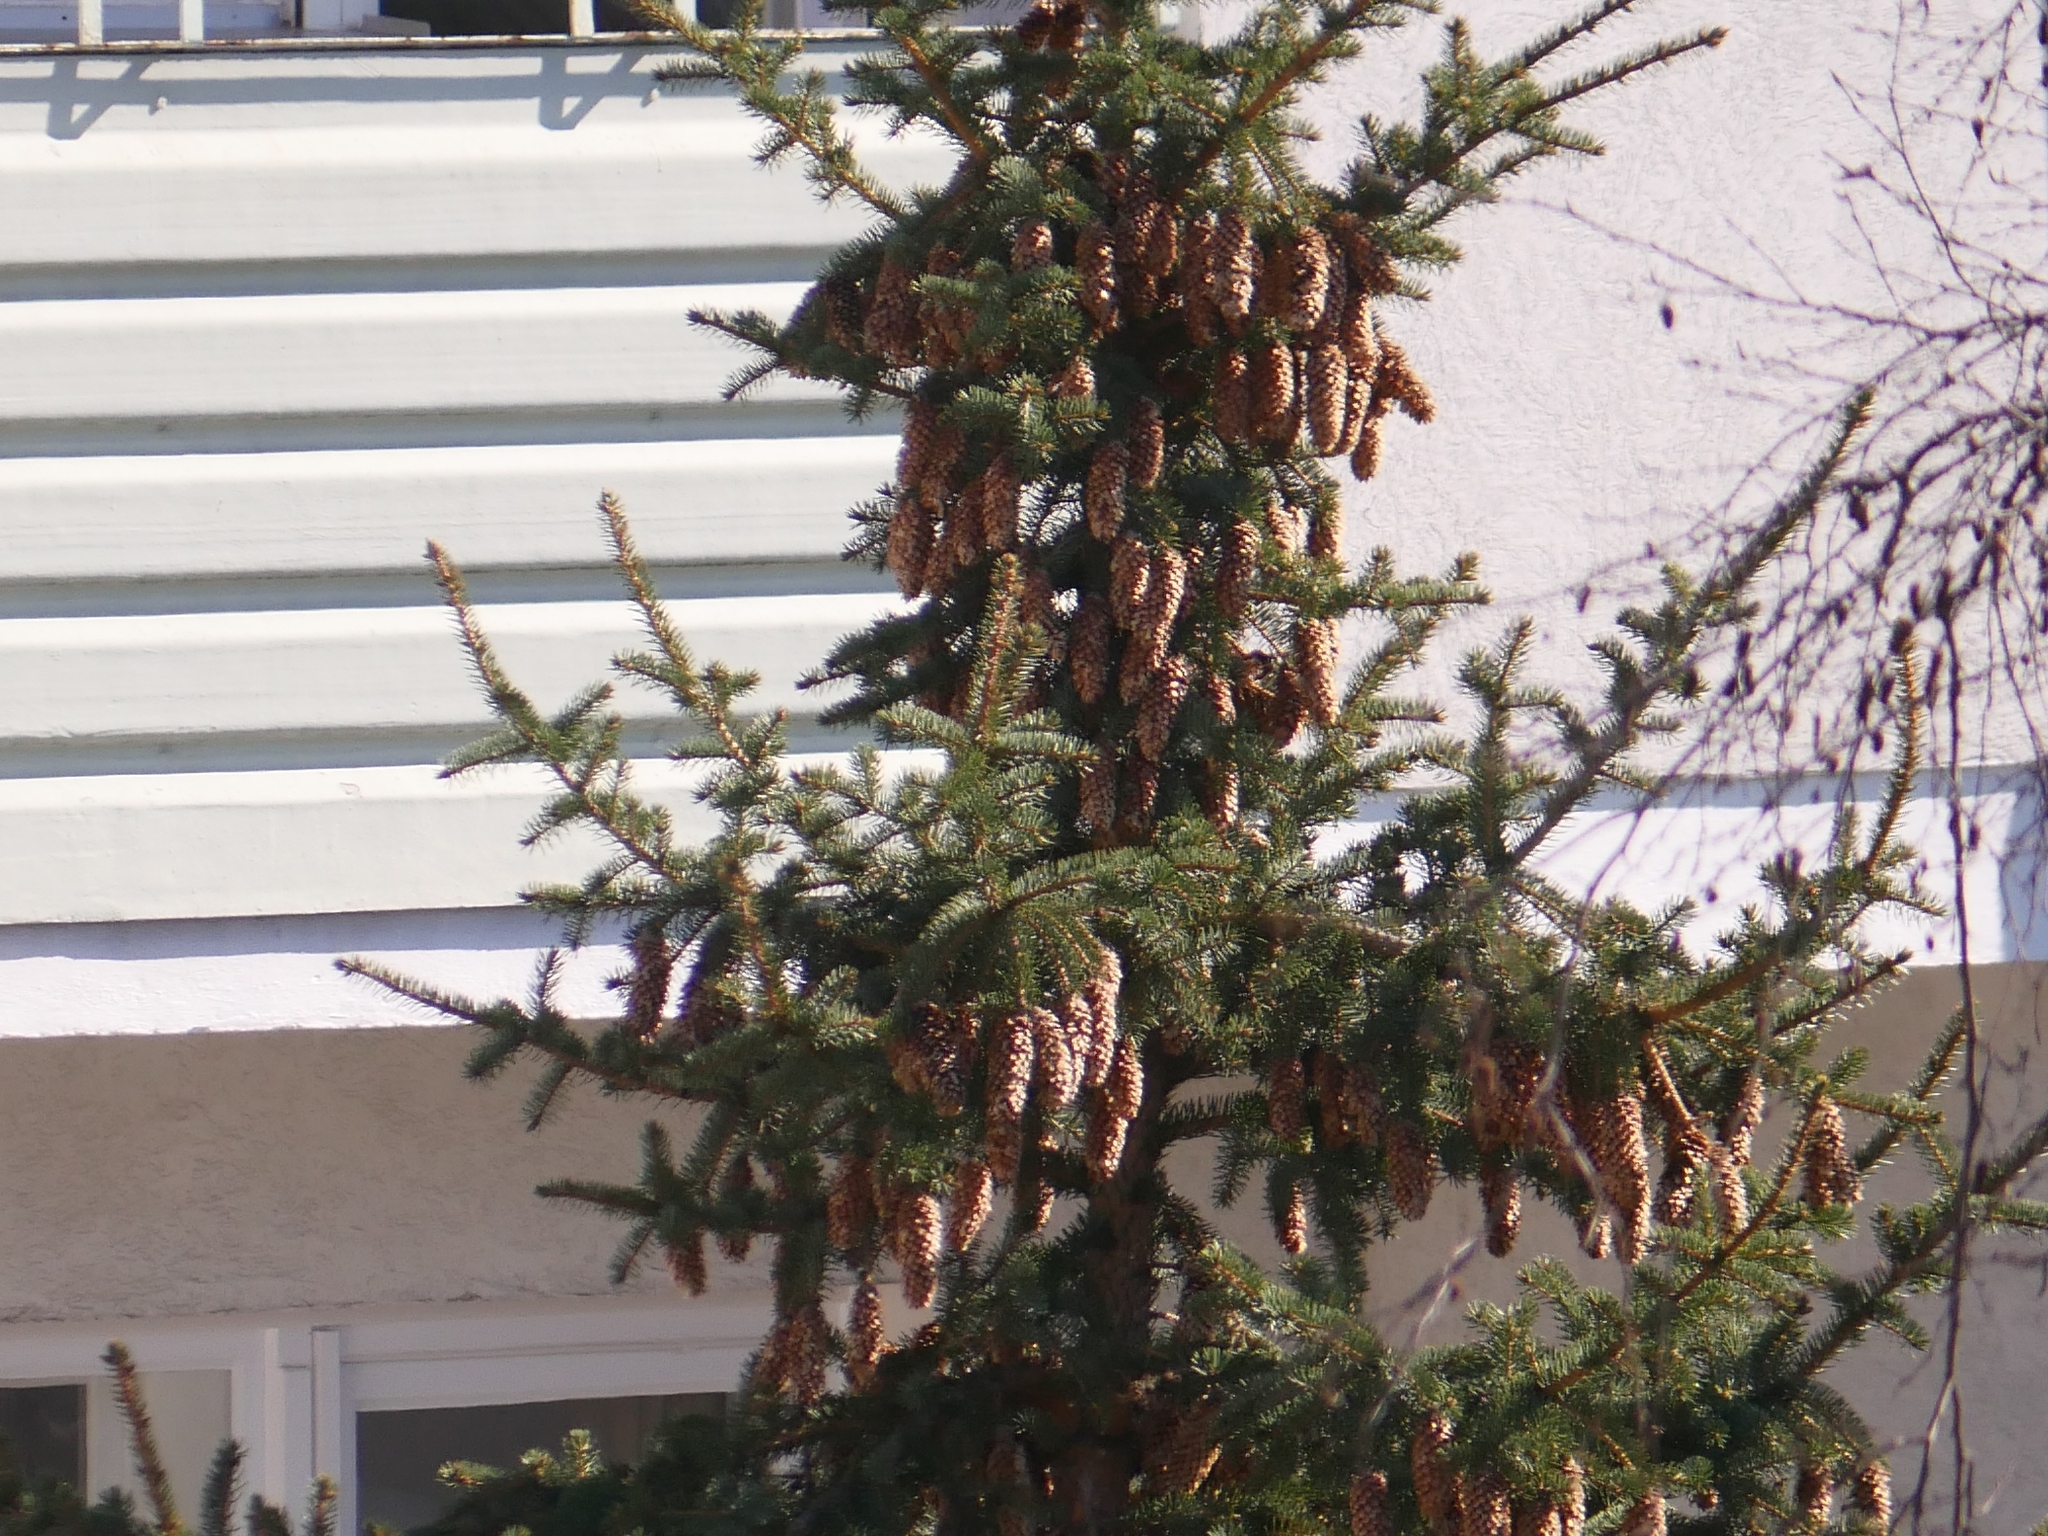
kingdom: Plantae
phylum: Tracheophyta
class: Pinopsida
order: Pinales
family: Pinaceae
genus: Picea
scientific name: Picea abies
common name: Norway spruce
